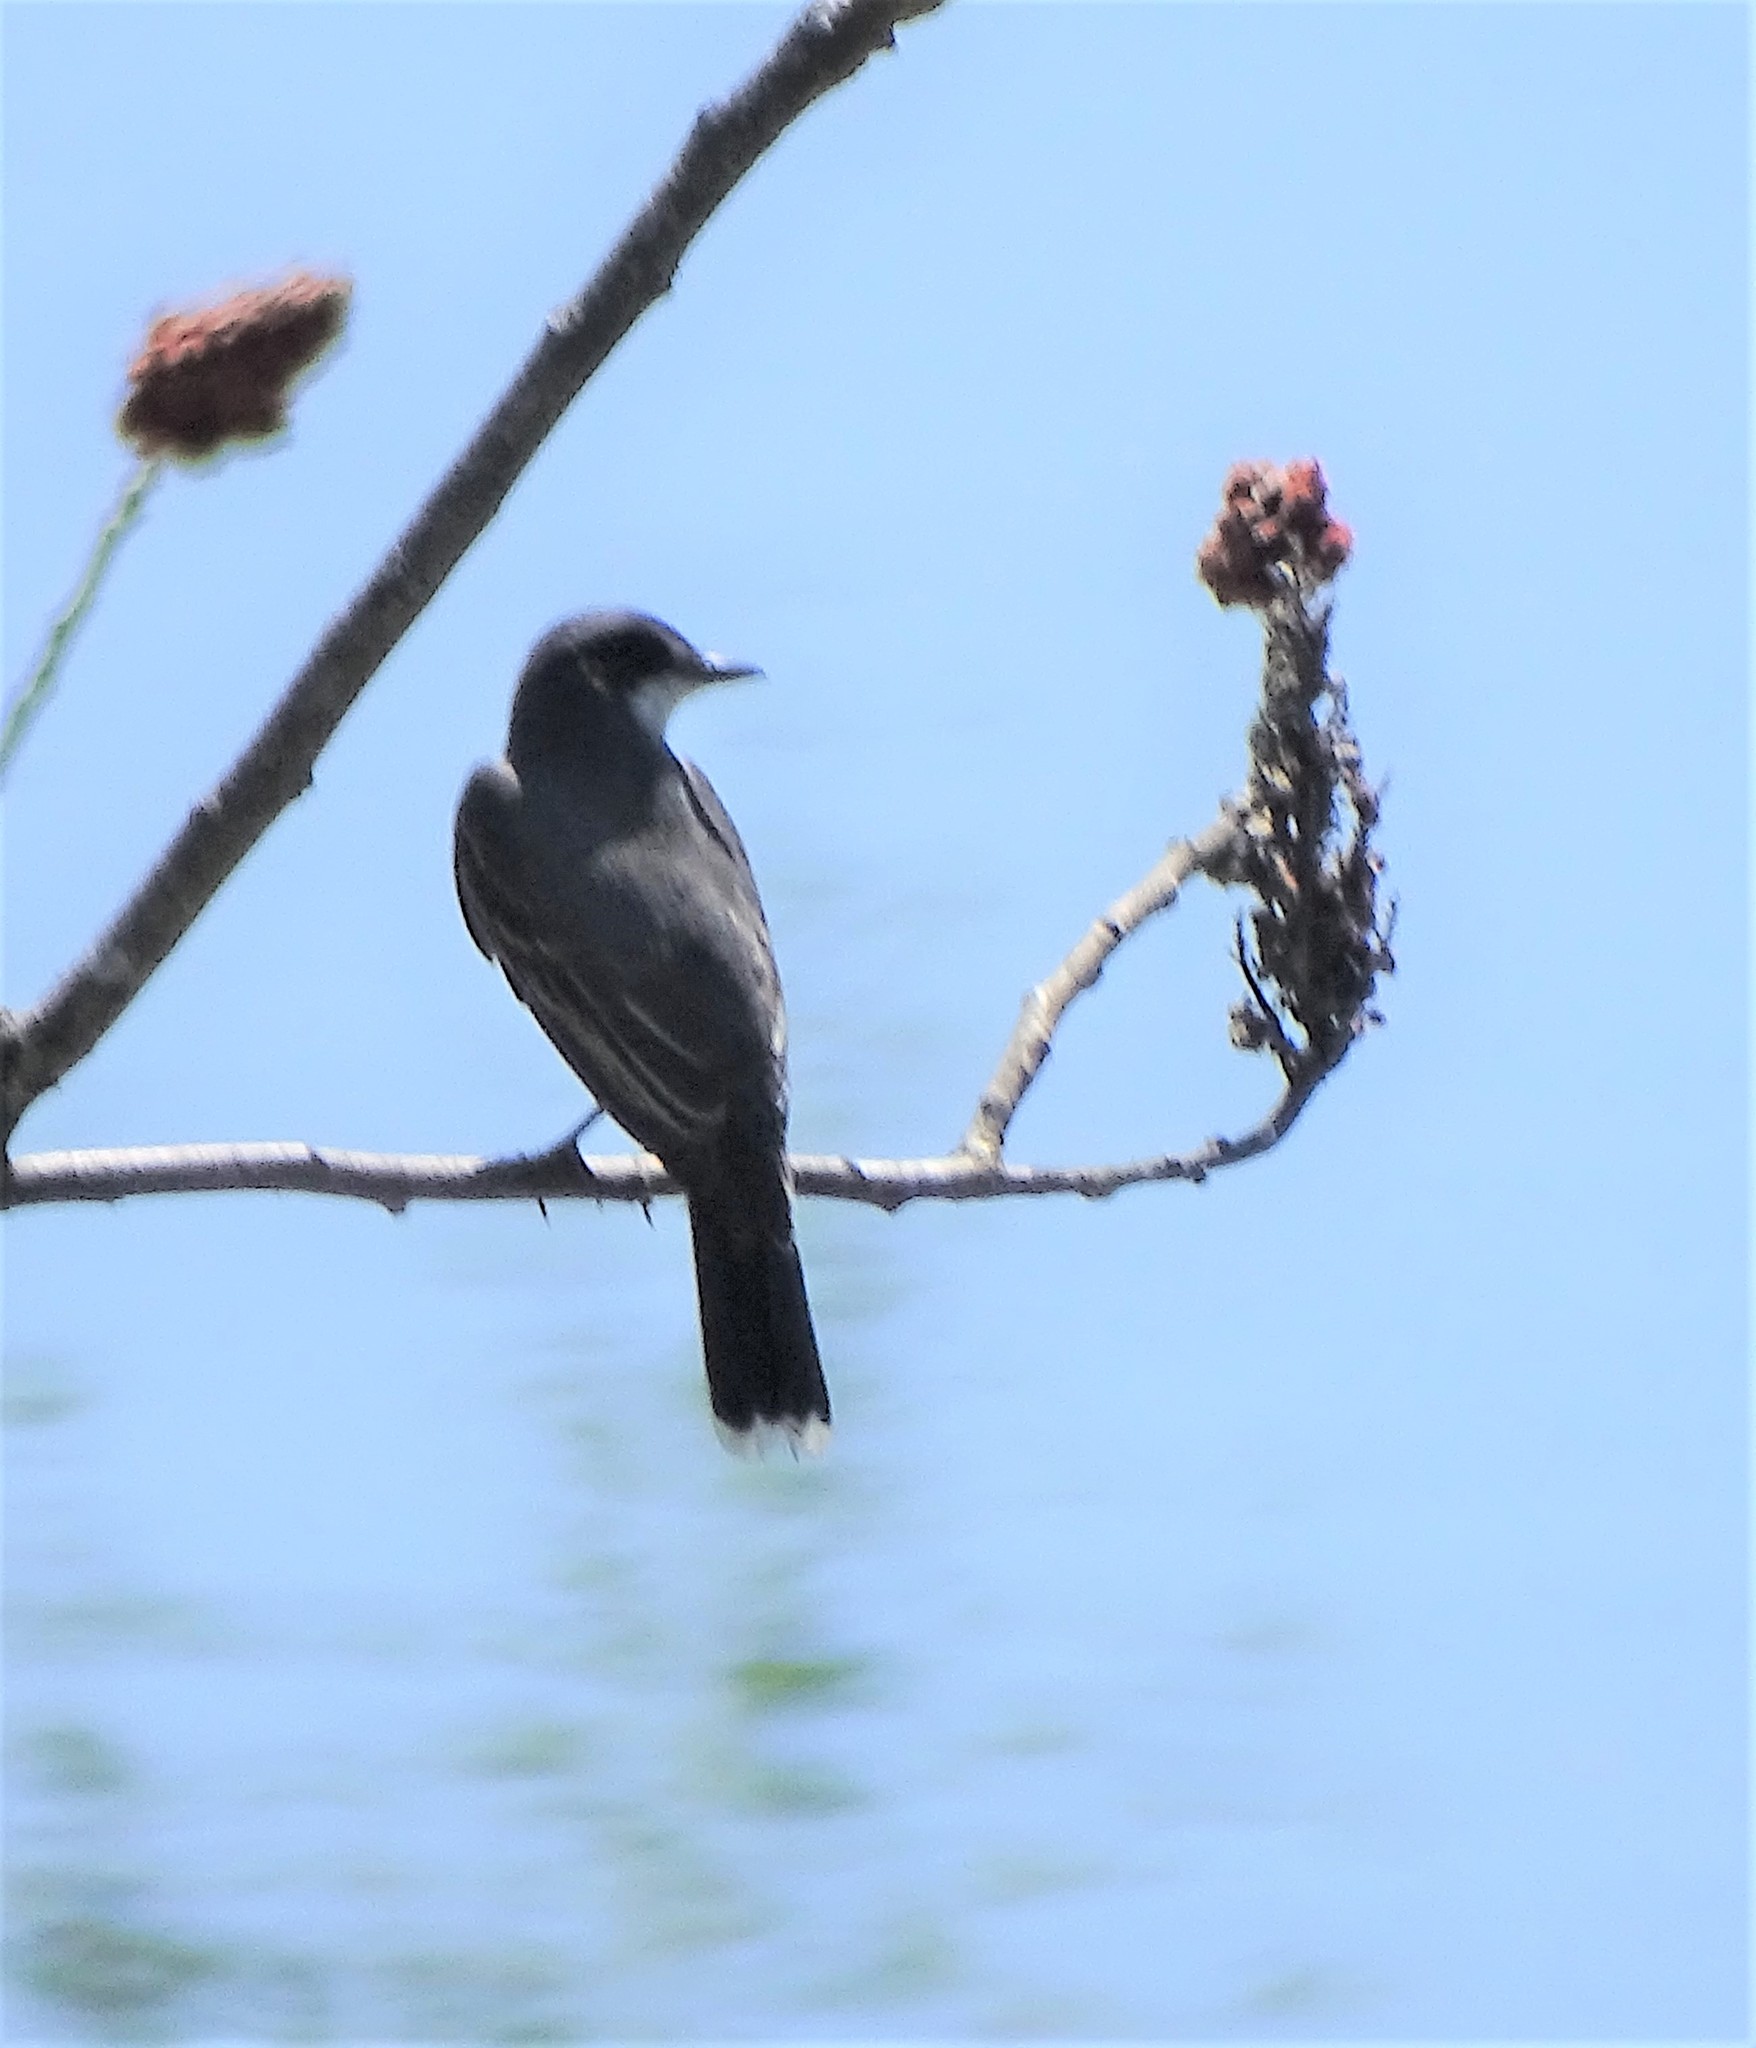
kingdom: Animalia
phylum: Chordata
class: Aves
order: Passeriformes
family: Tyrannidae
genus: Tyrannus
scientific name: Tyrannus tyrannus
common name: Eastern kingbird
